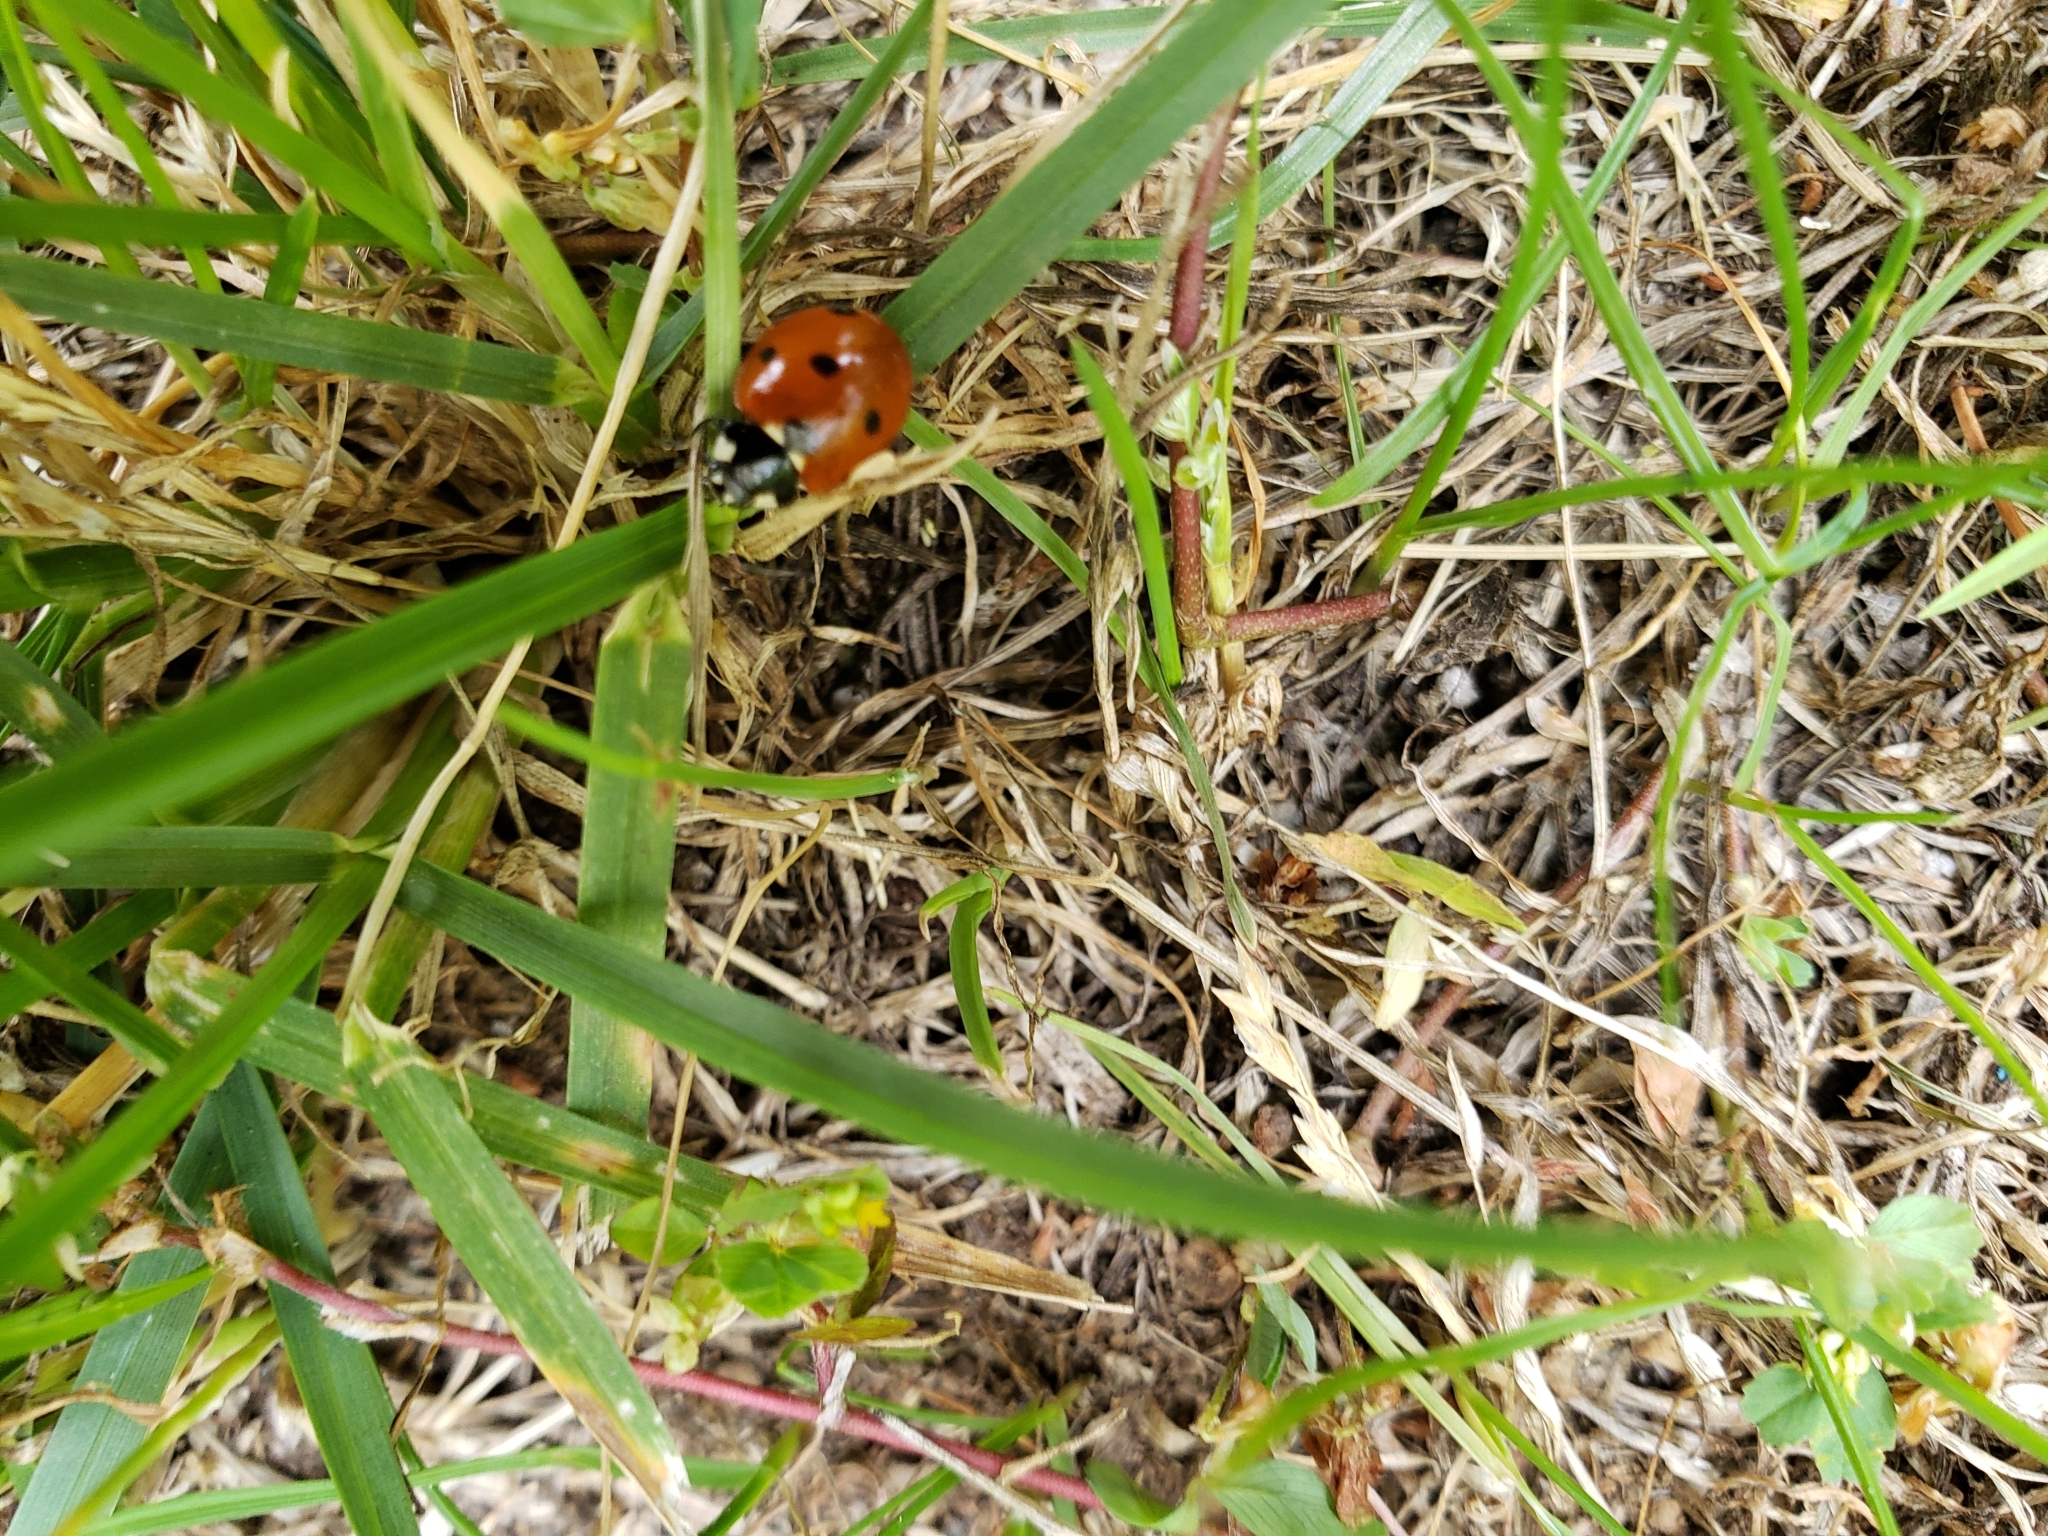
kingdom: Animalia
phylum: Arthropoda
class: Insecta
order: Coleoptera
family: Coccinellidae
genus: Coccinella
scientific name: Coccinella septempunctata
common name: Sevenspotted lady beetle
